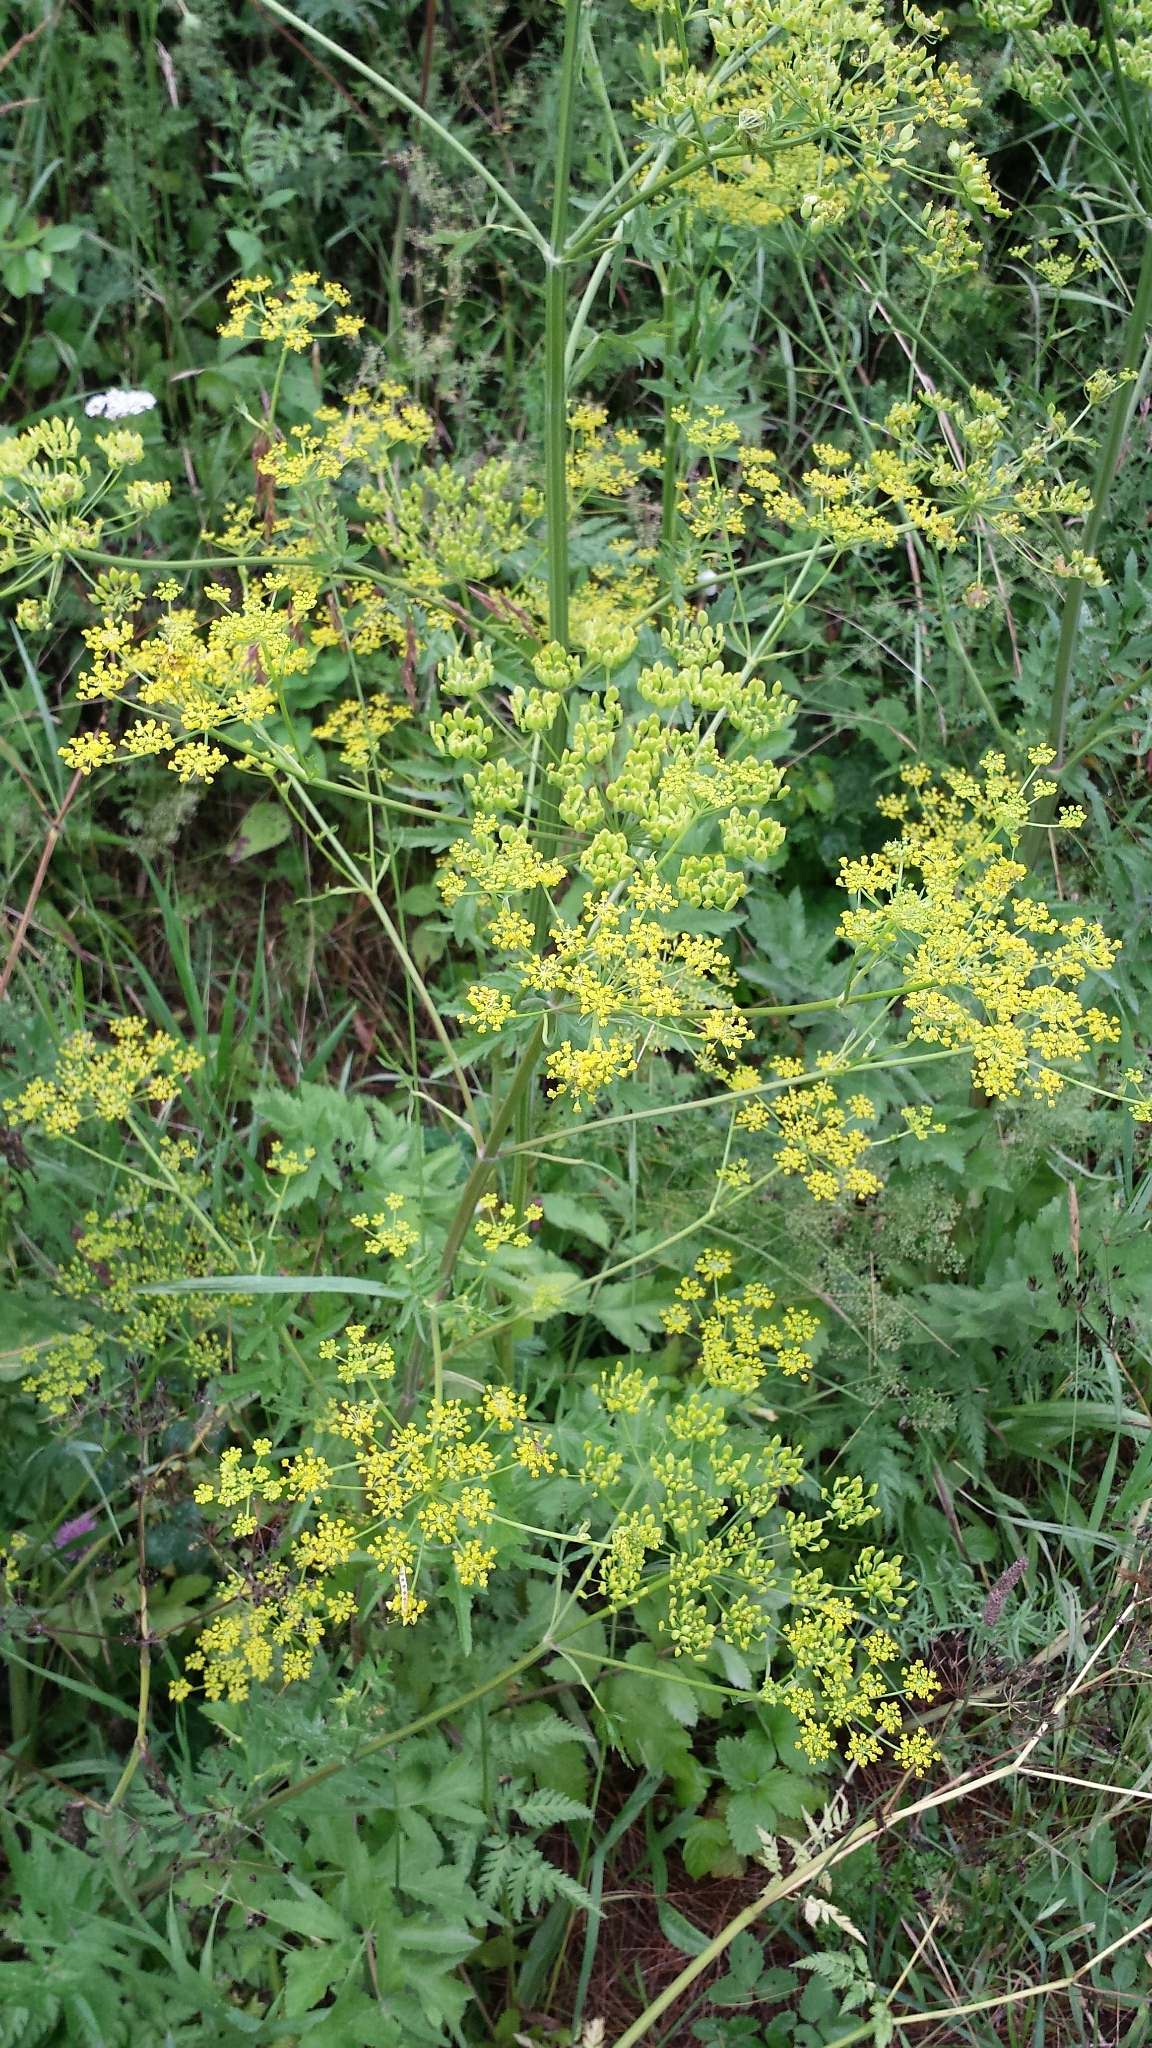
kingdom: Plantae
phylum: Tracheophyta
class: Magnoliopsida
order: Apiales
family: Apiaceae
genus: Pastinaca
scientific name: Pastinaca sativa
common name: Wild parsnip
